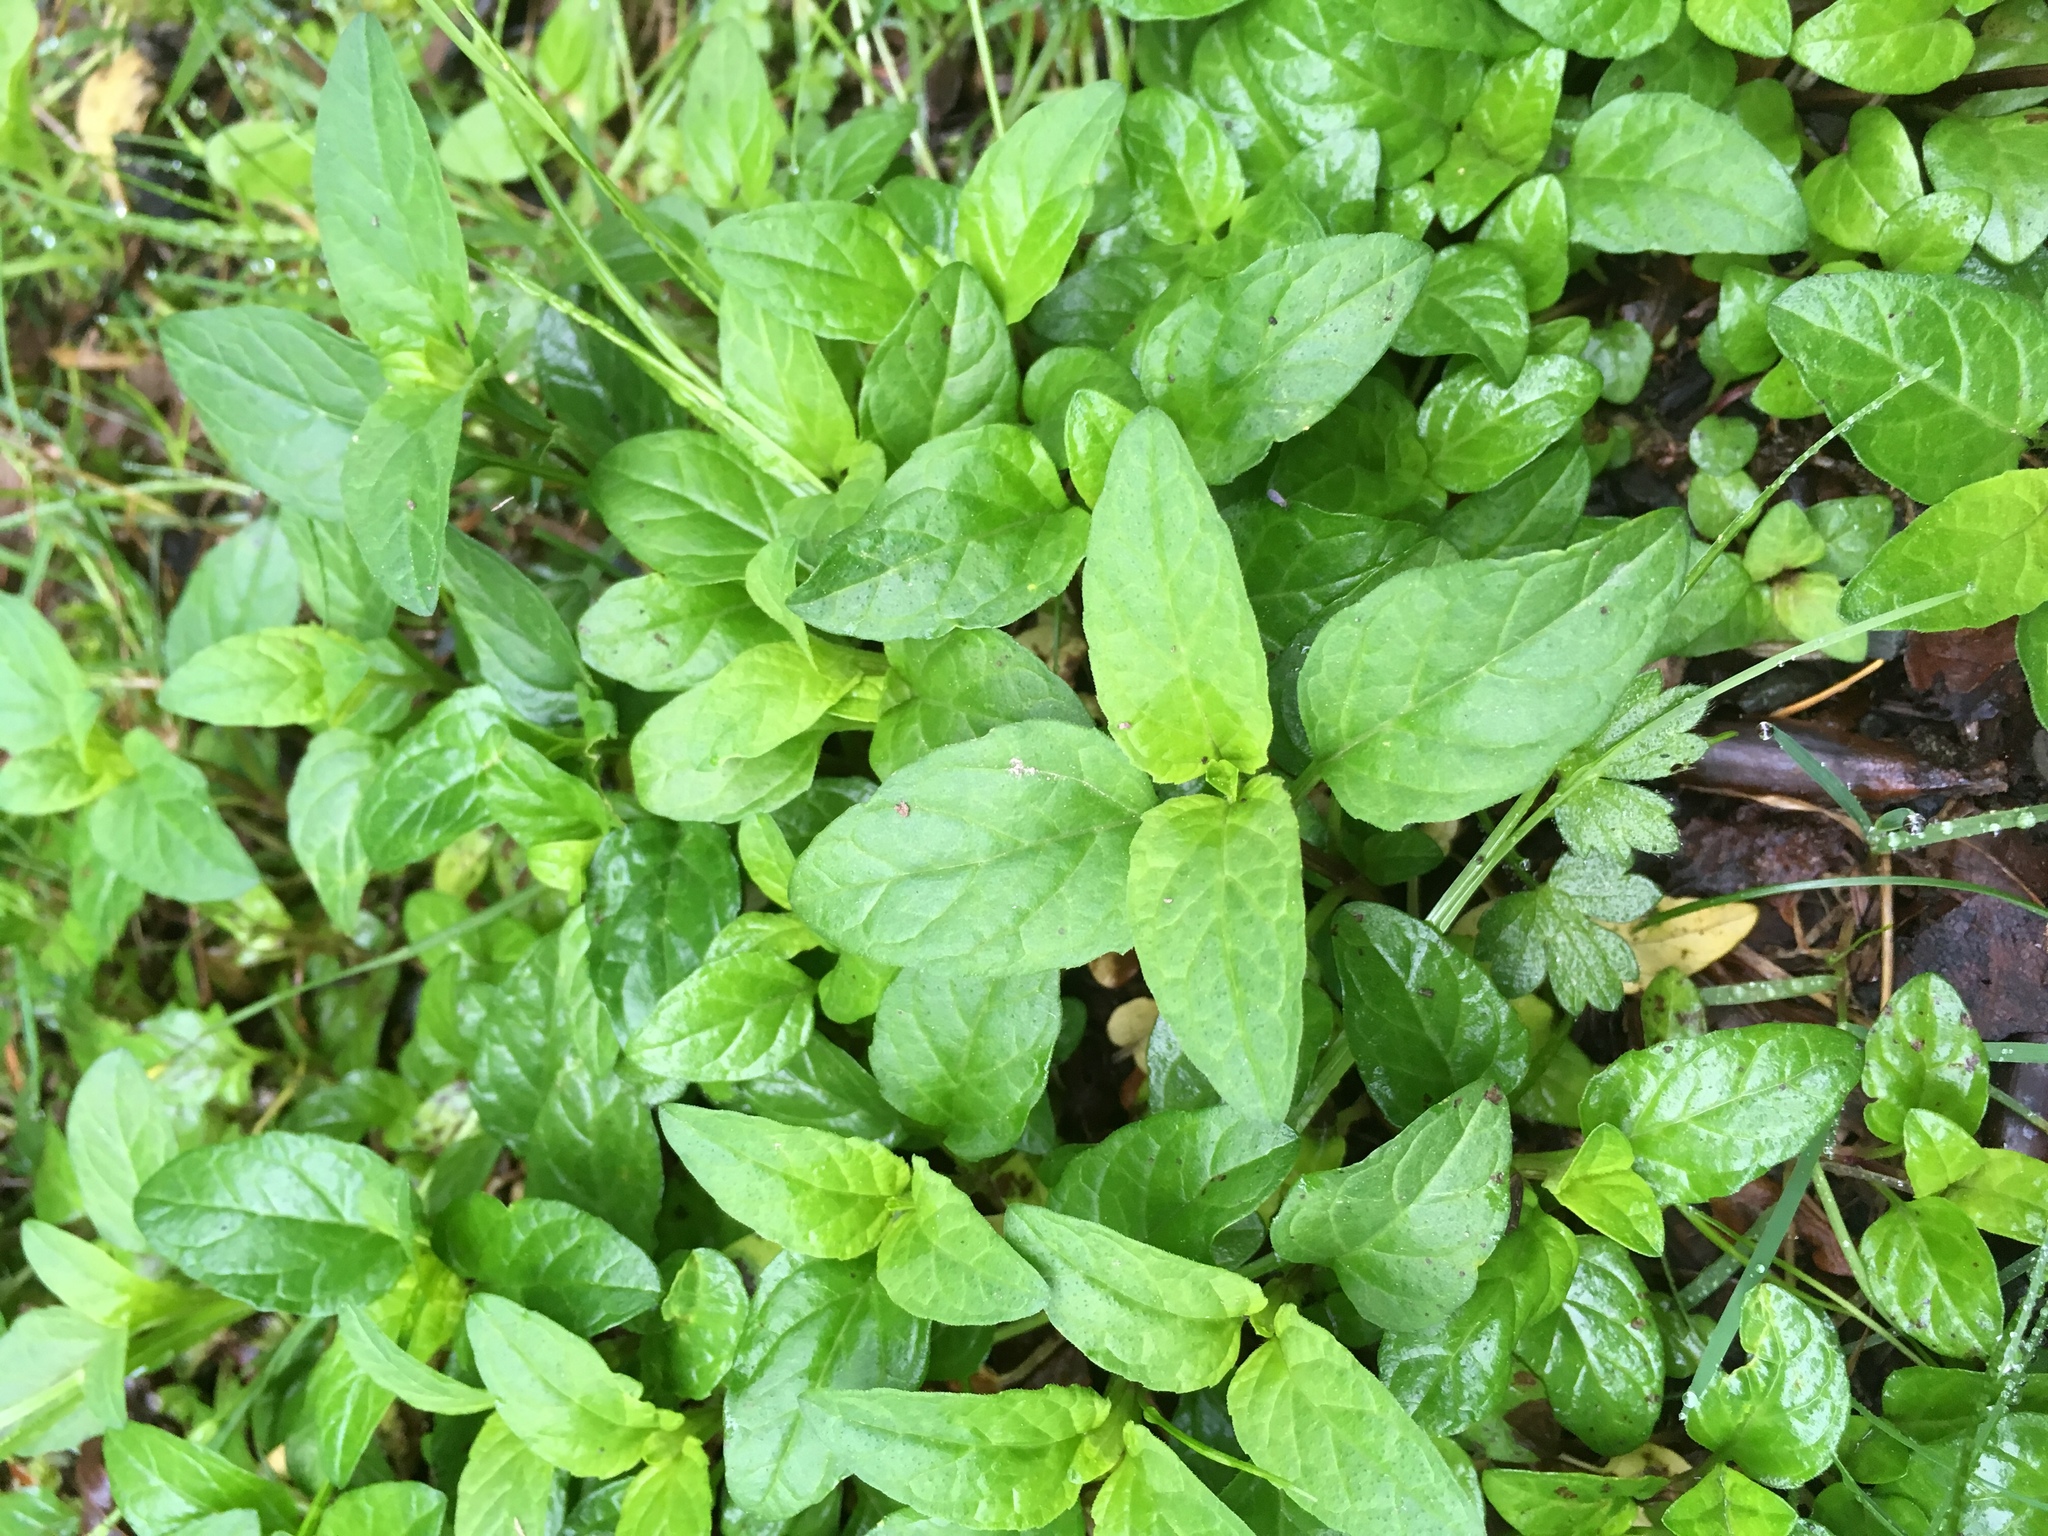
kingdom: Plantae
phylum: Tracheophyta
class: Magnoliopsida
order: Lamiales
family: Lamiaceae
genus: Prunella
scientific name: Prunella vulgaris
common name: Heal-all
